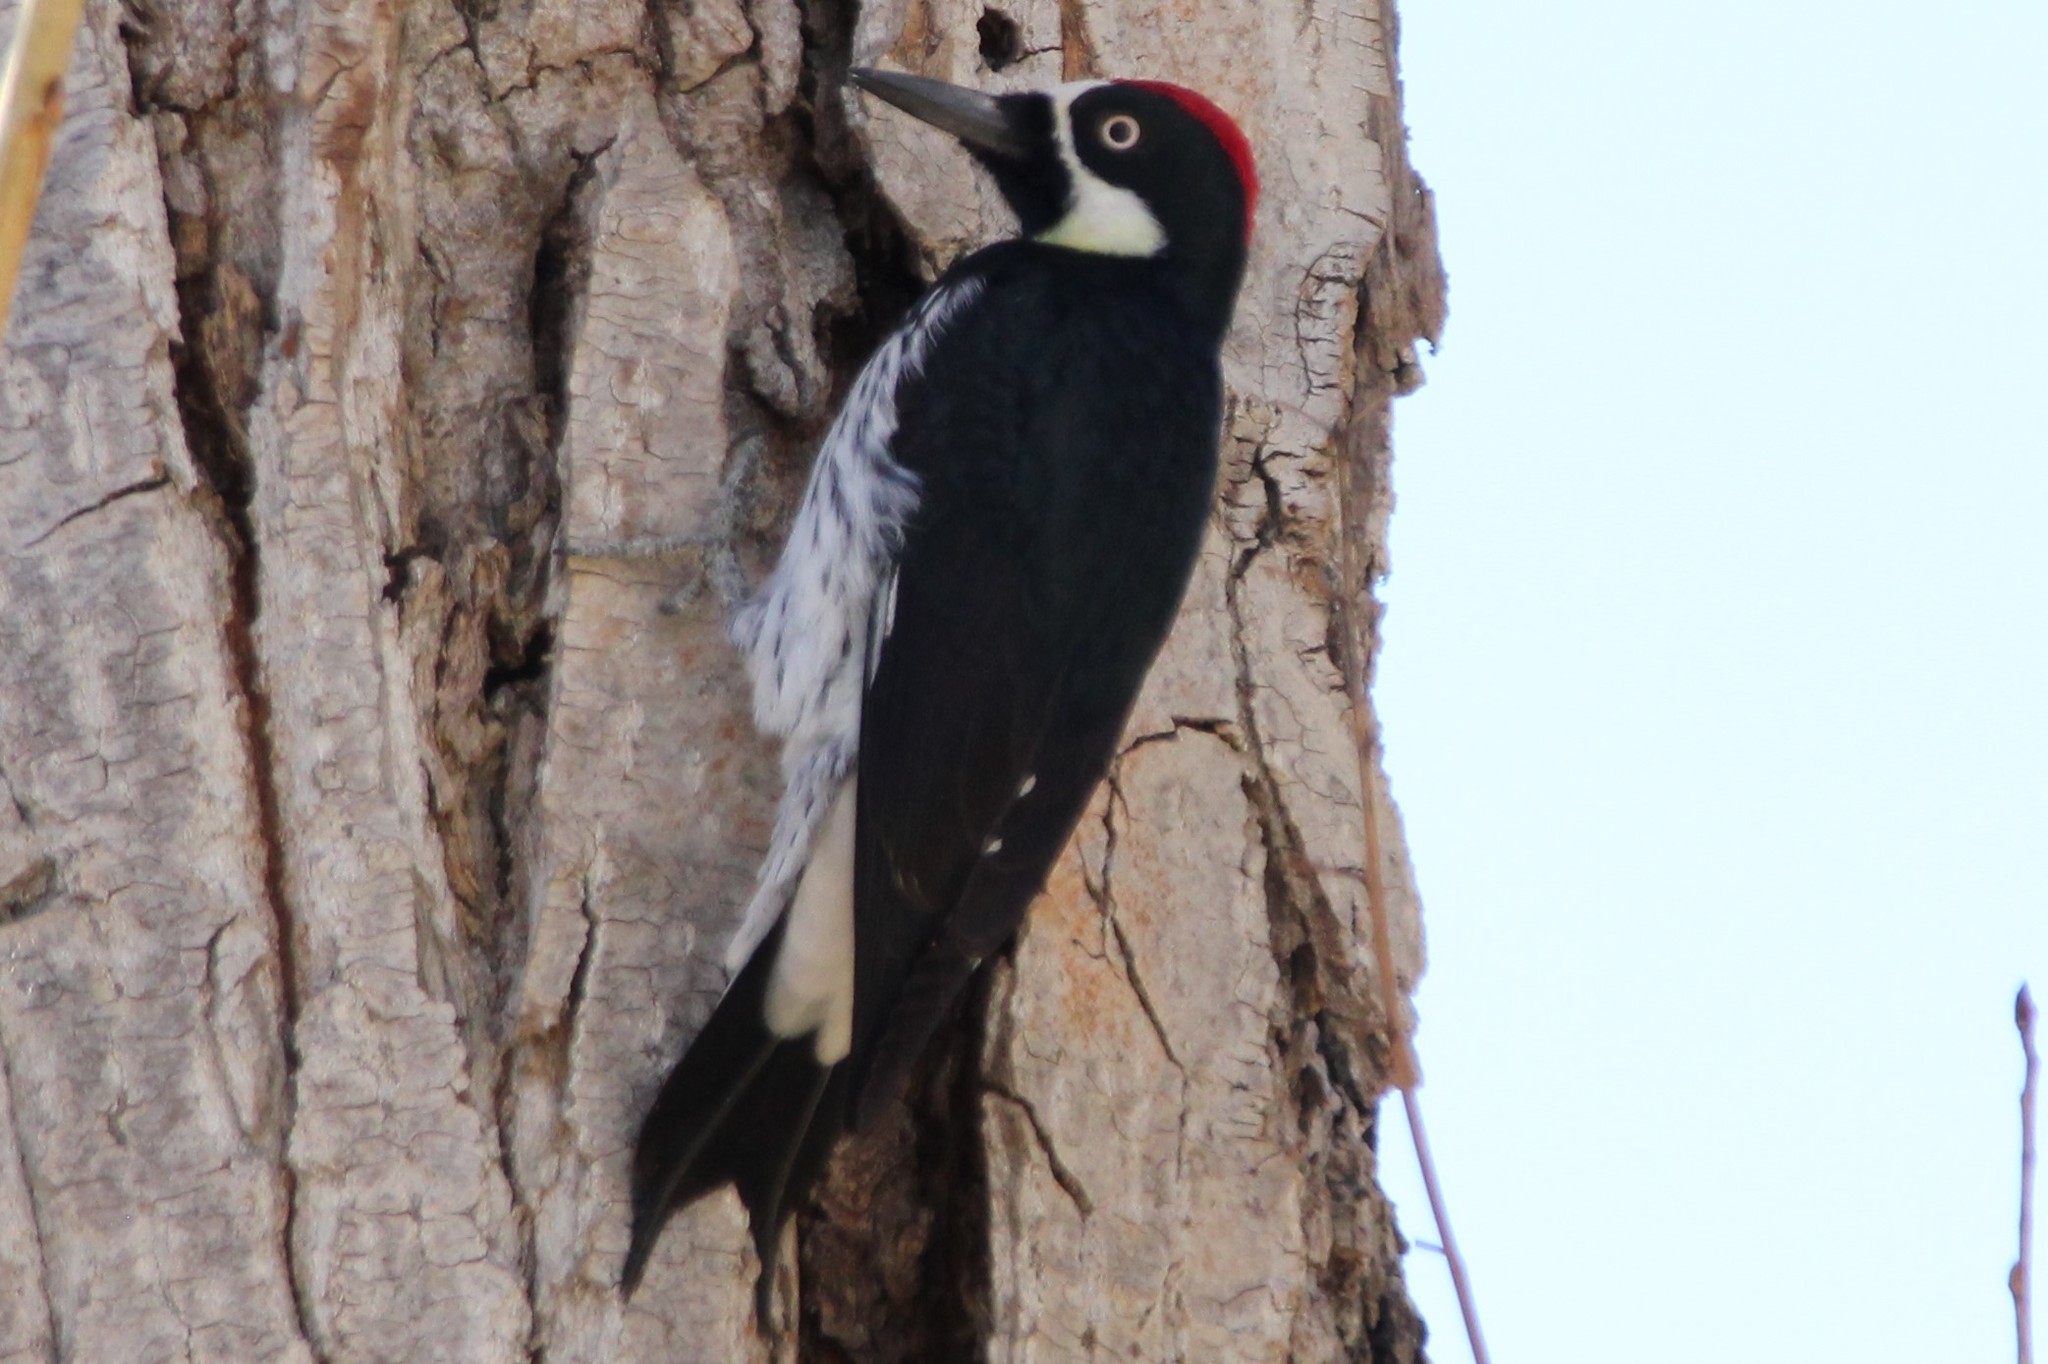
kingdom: Animalia
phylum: Chordata
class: Aves
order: Piciformes
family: Picidae
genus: Melanerpes
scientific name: Melanerpes formicivorus
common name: Acorn woodpecker
